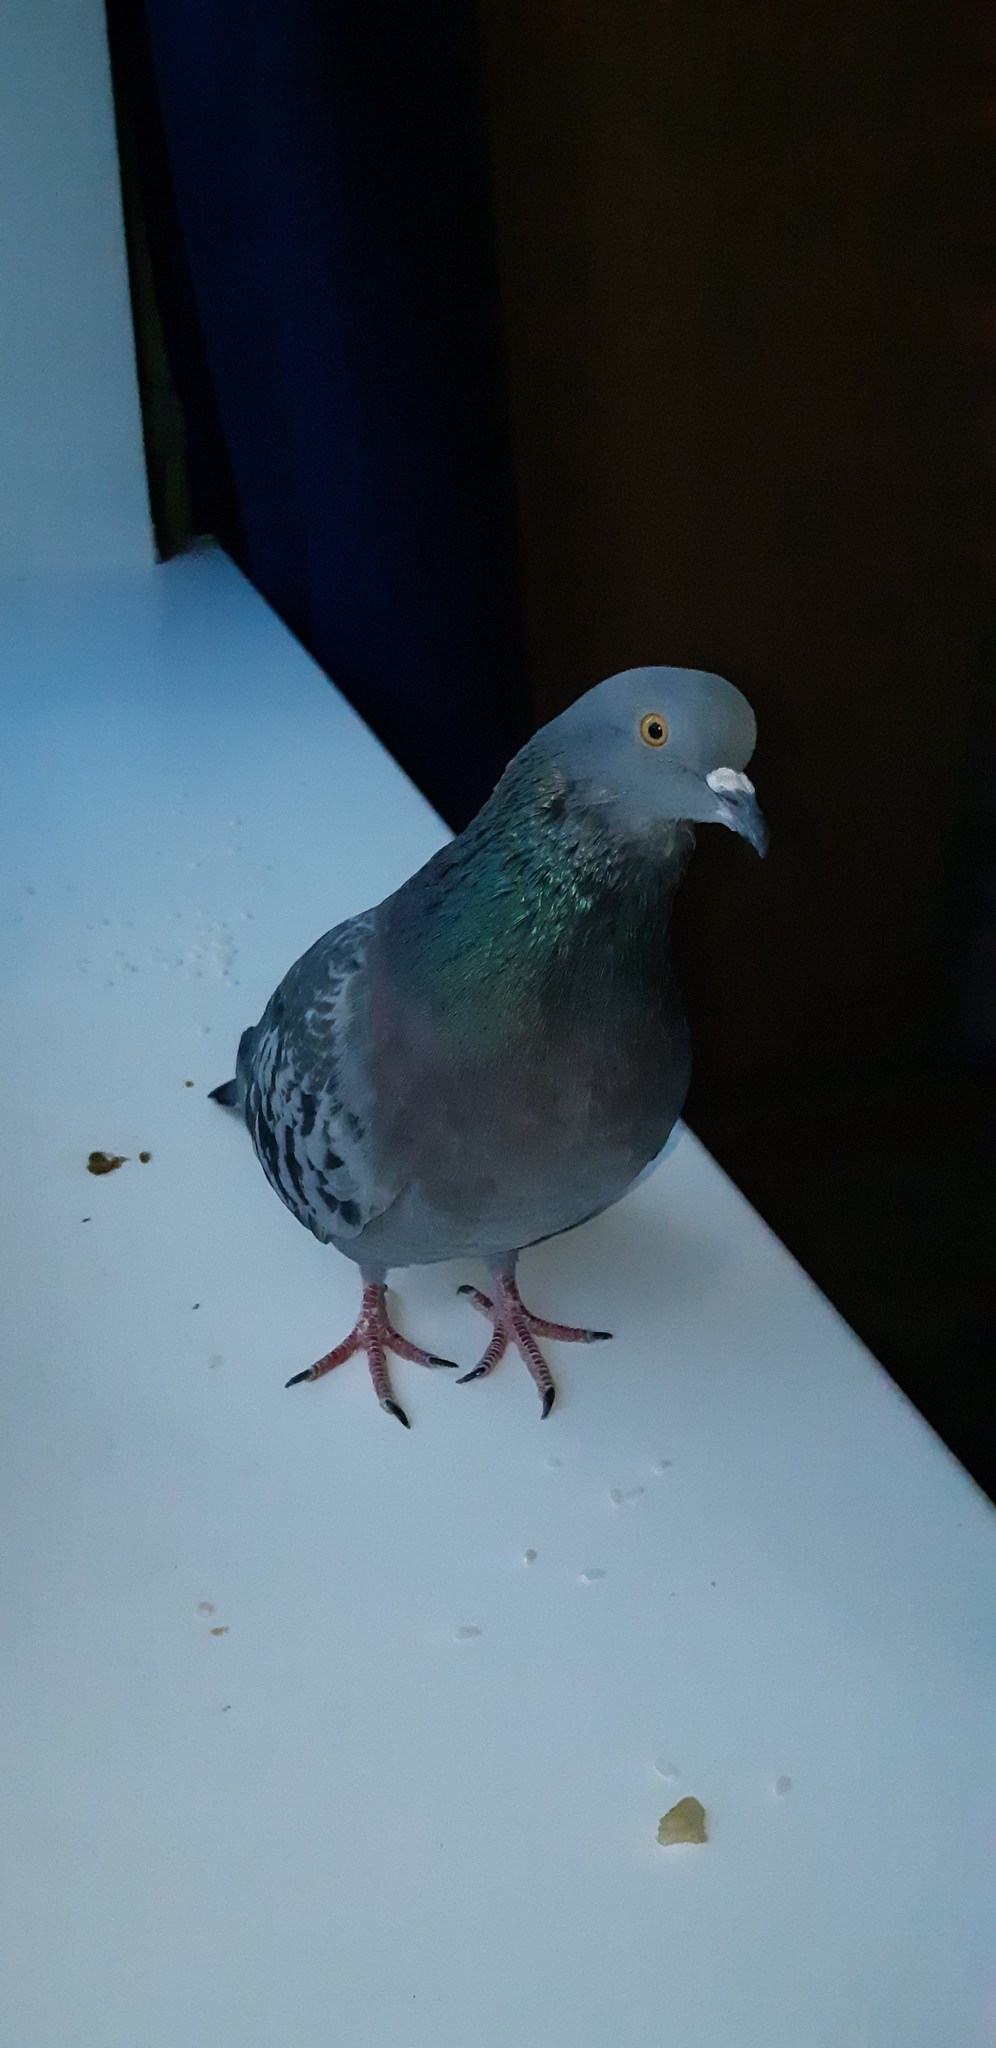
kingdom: Animalia
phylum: Chordata
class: Aves
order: Columbiformes
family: Columbidae
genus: Columba
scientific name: Columba livia
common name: Rock pigeon
